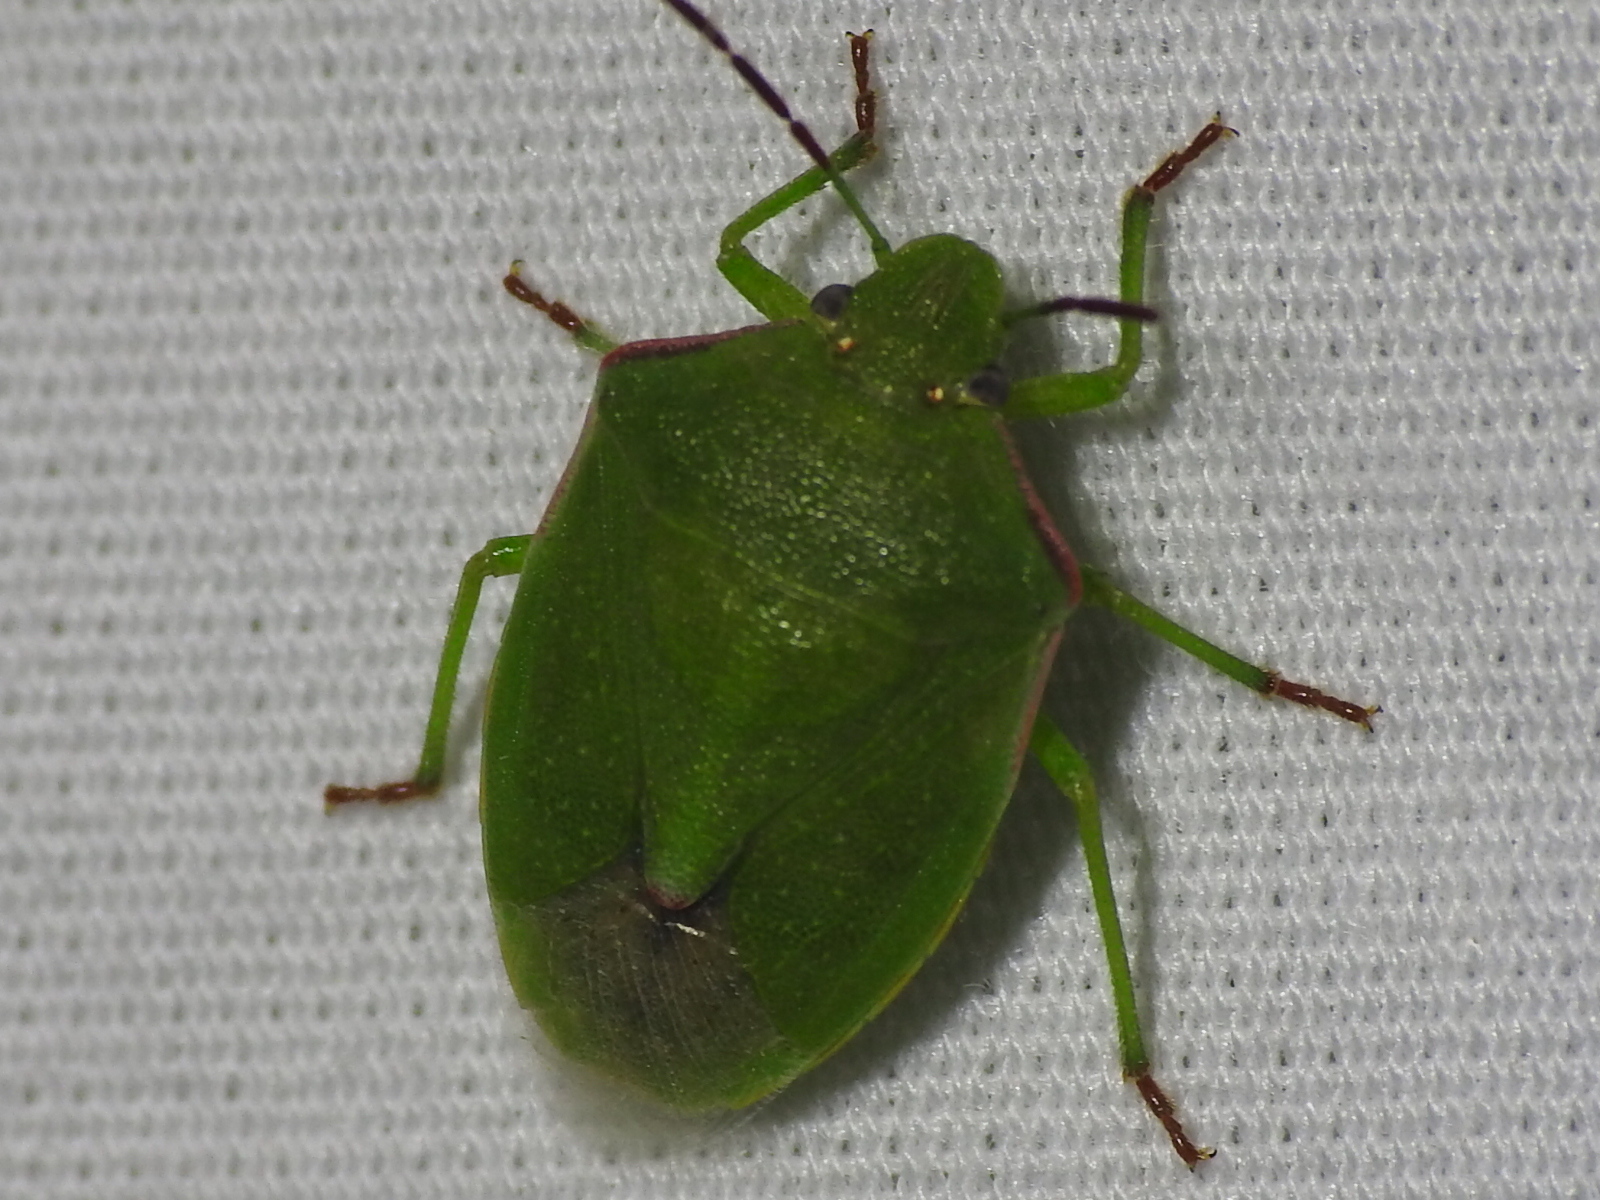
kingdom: Animalia
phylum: Arthropoda
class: Insecta
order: Hemiptera
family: Pentatomidae
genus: Thyanta
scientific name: Thyanta accerra
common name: Stink bug
